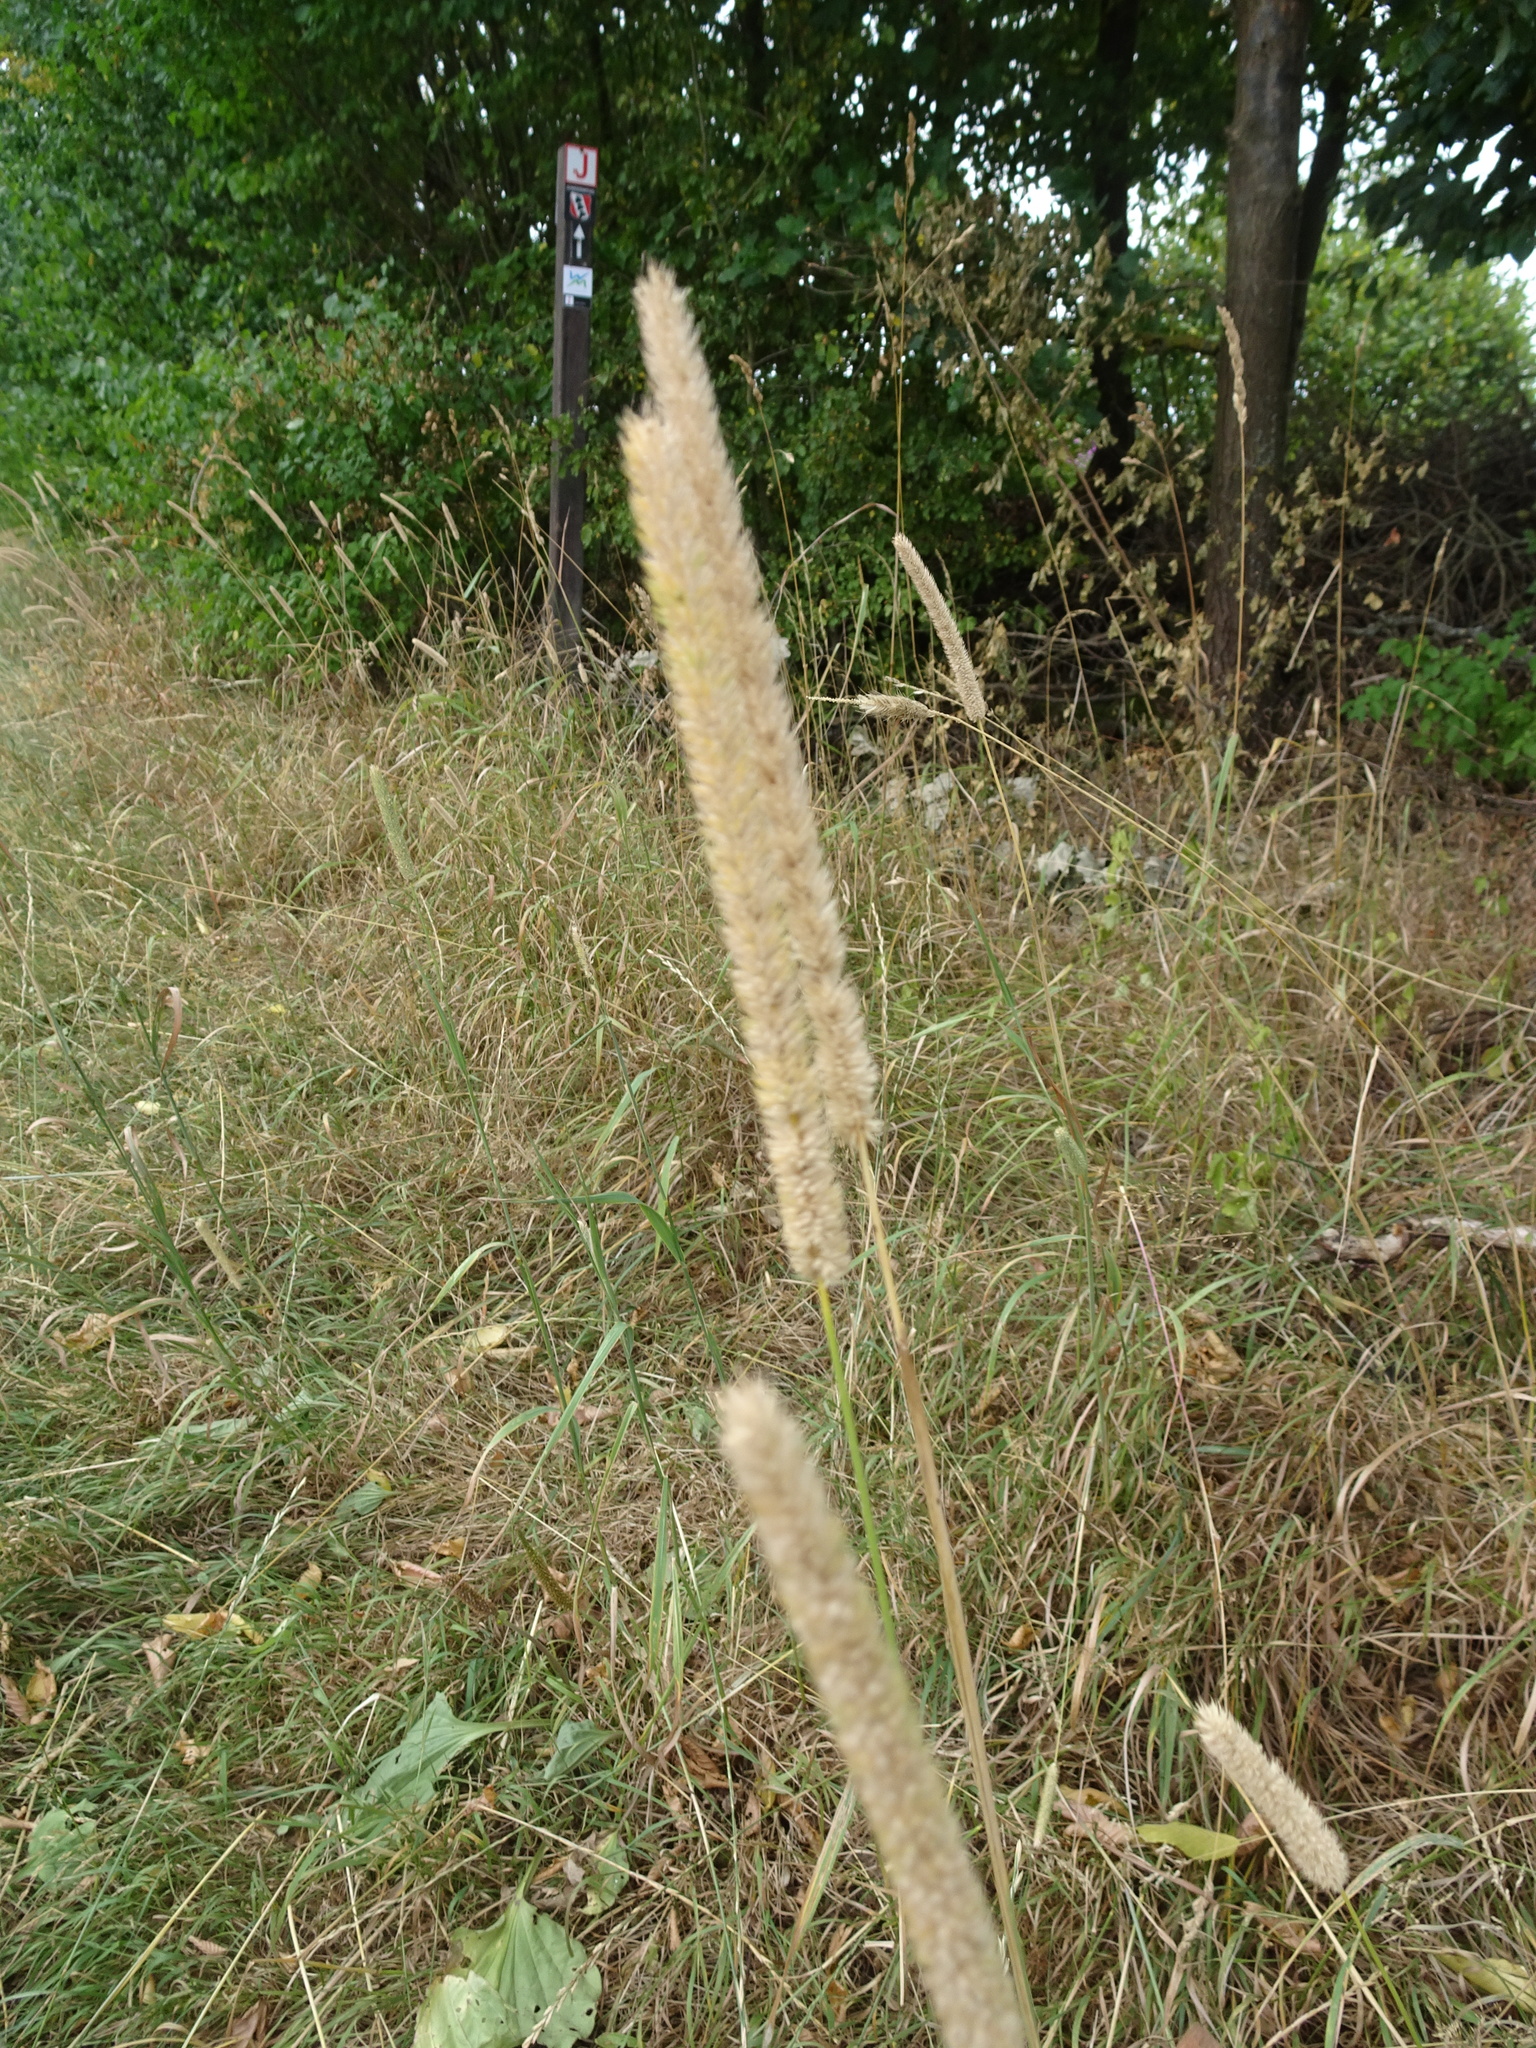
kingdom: Plantae
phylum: Tracheophyta
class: Liliopsida
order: Poales
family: Poaceae
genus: Phleum
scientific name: Phleum pratense
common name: Timothy grass
